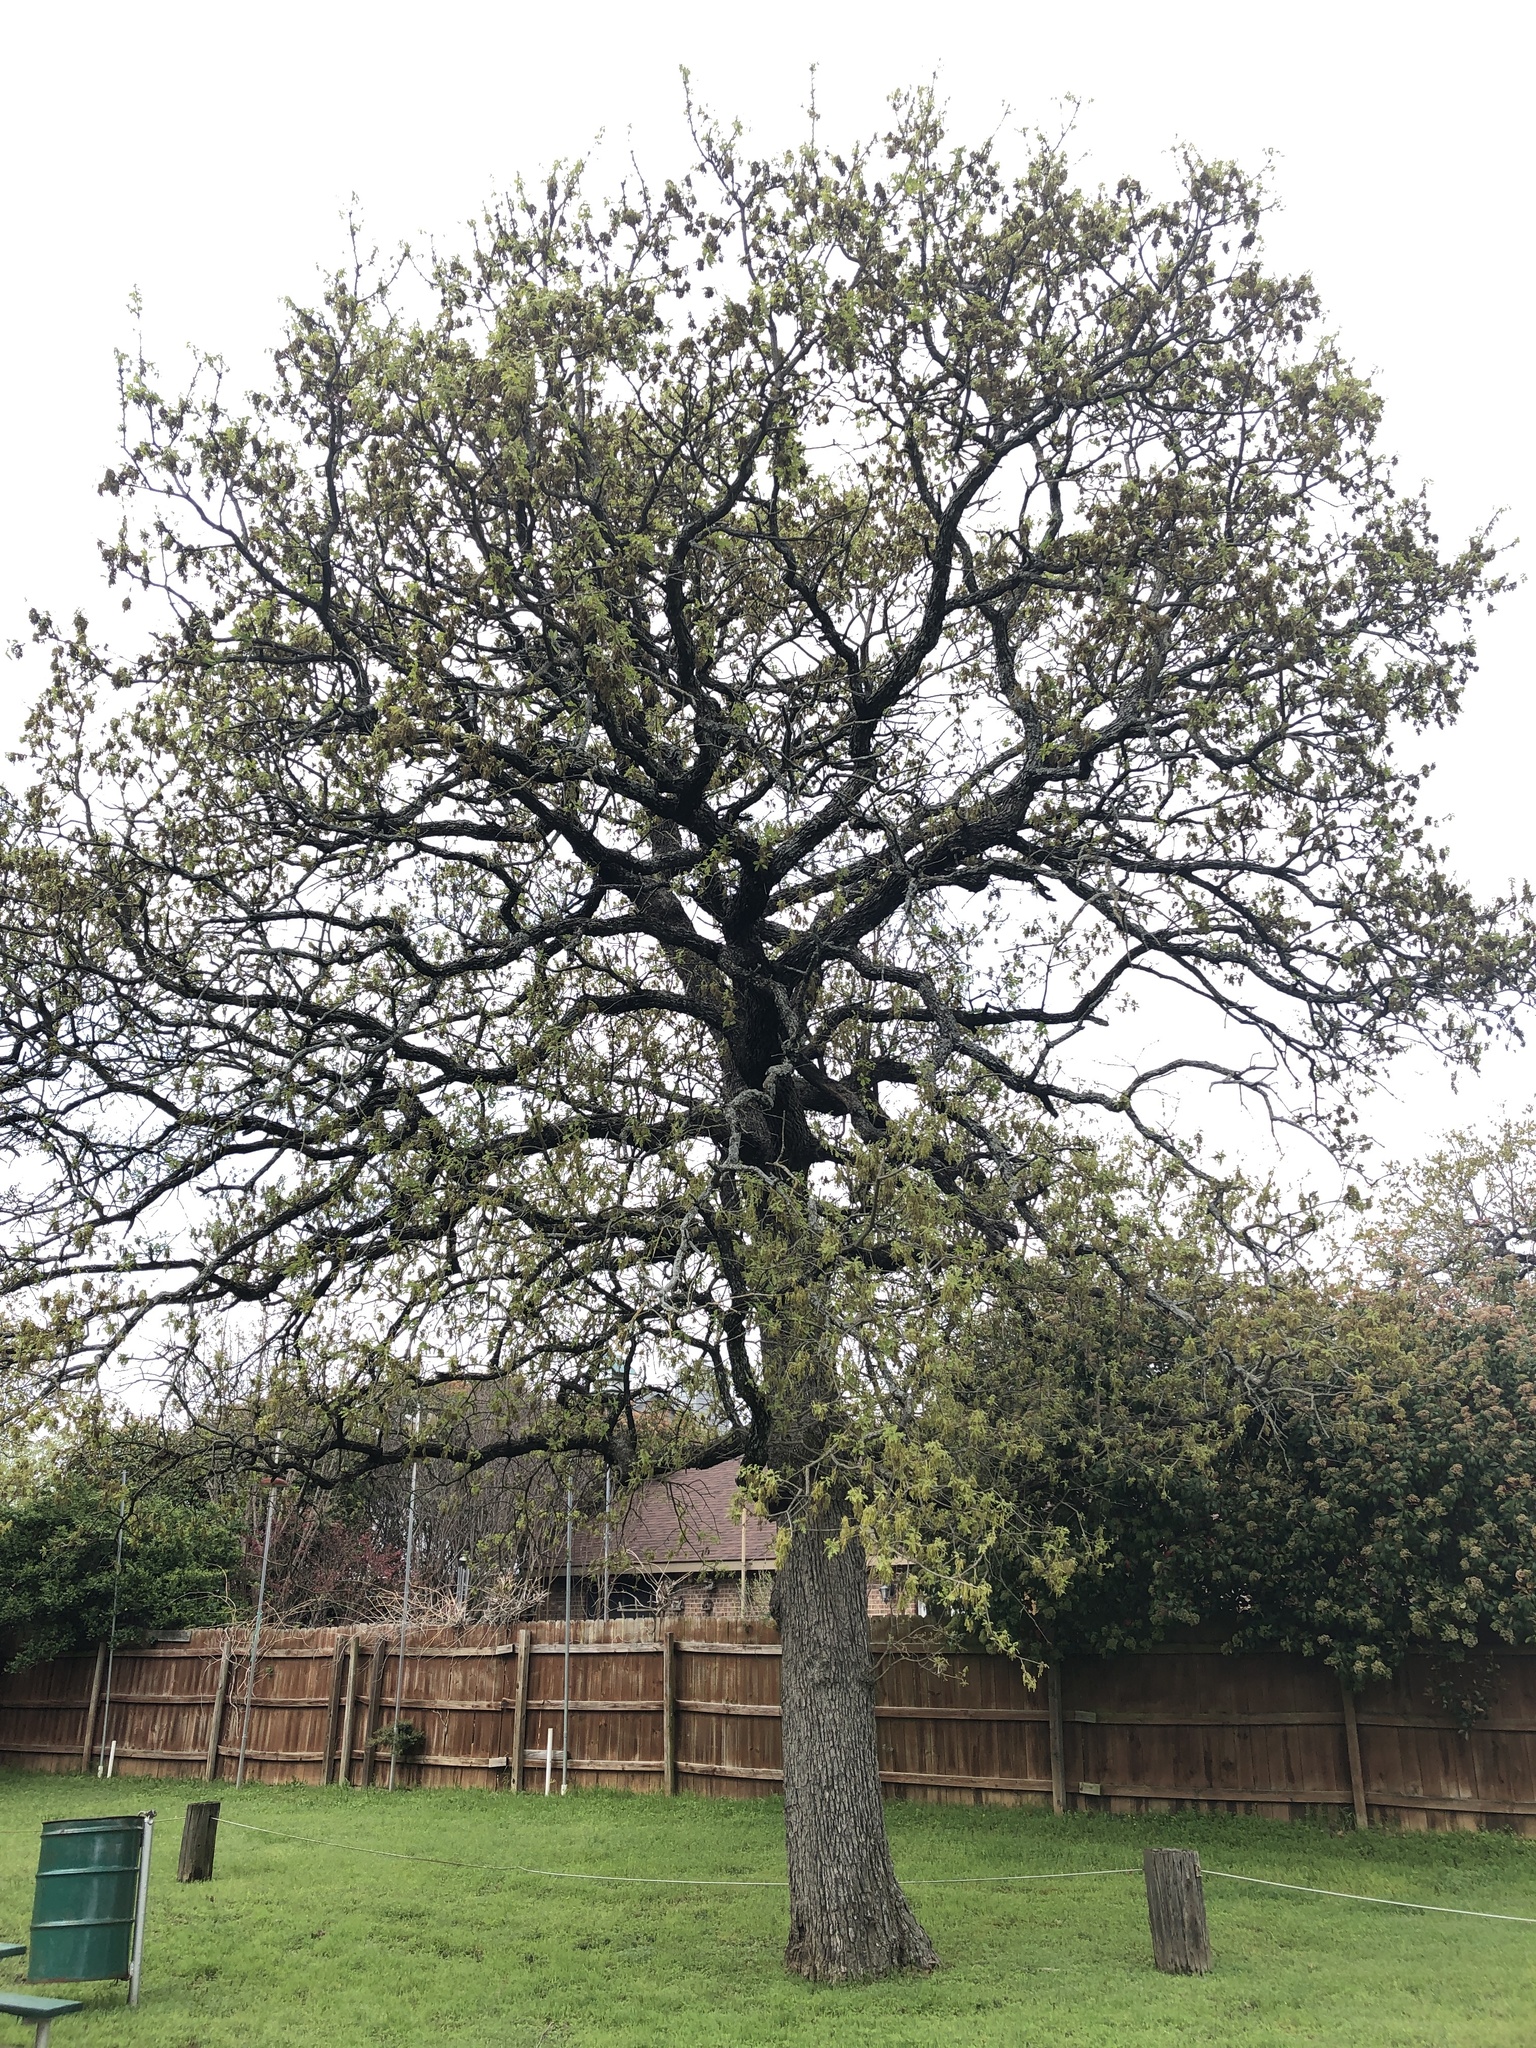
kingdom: Plantae
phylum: Tracheophyta
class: Magnoliopsida
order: Fagales
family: Fagaceae
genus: Quercus
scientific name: Quercus stellata
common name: Post oak
